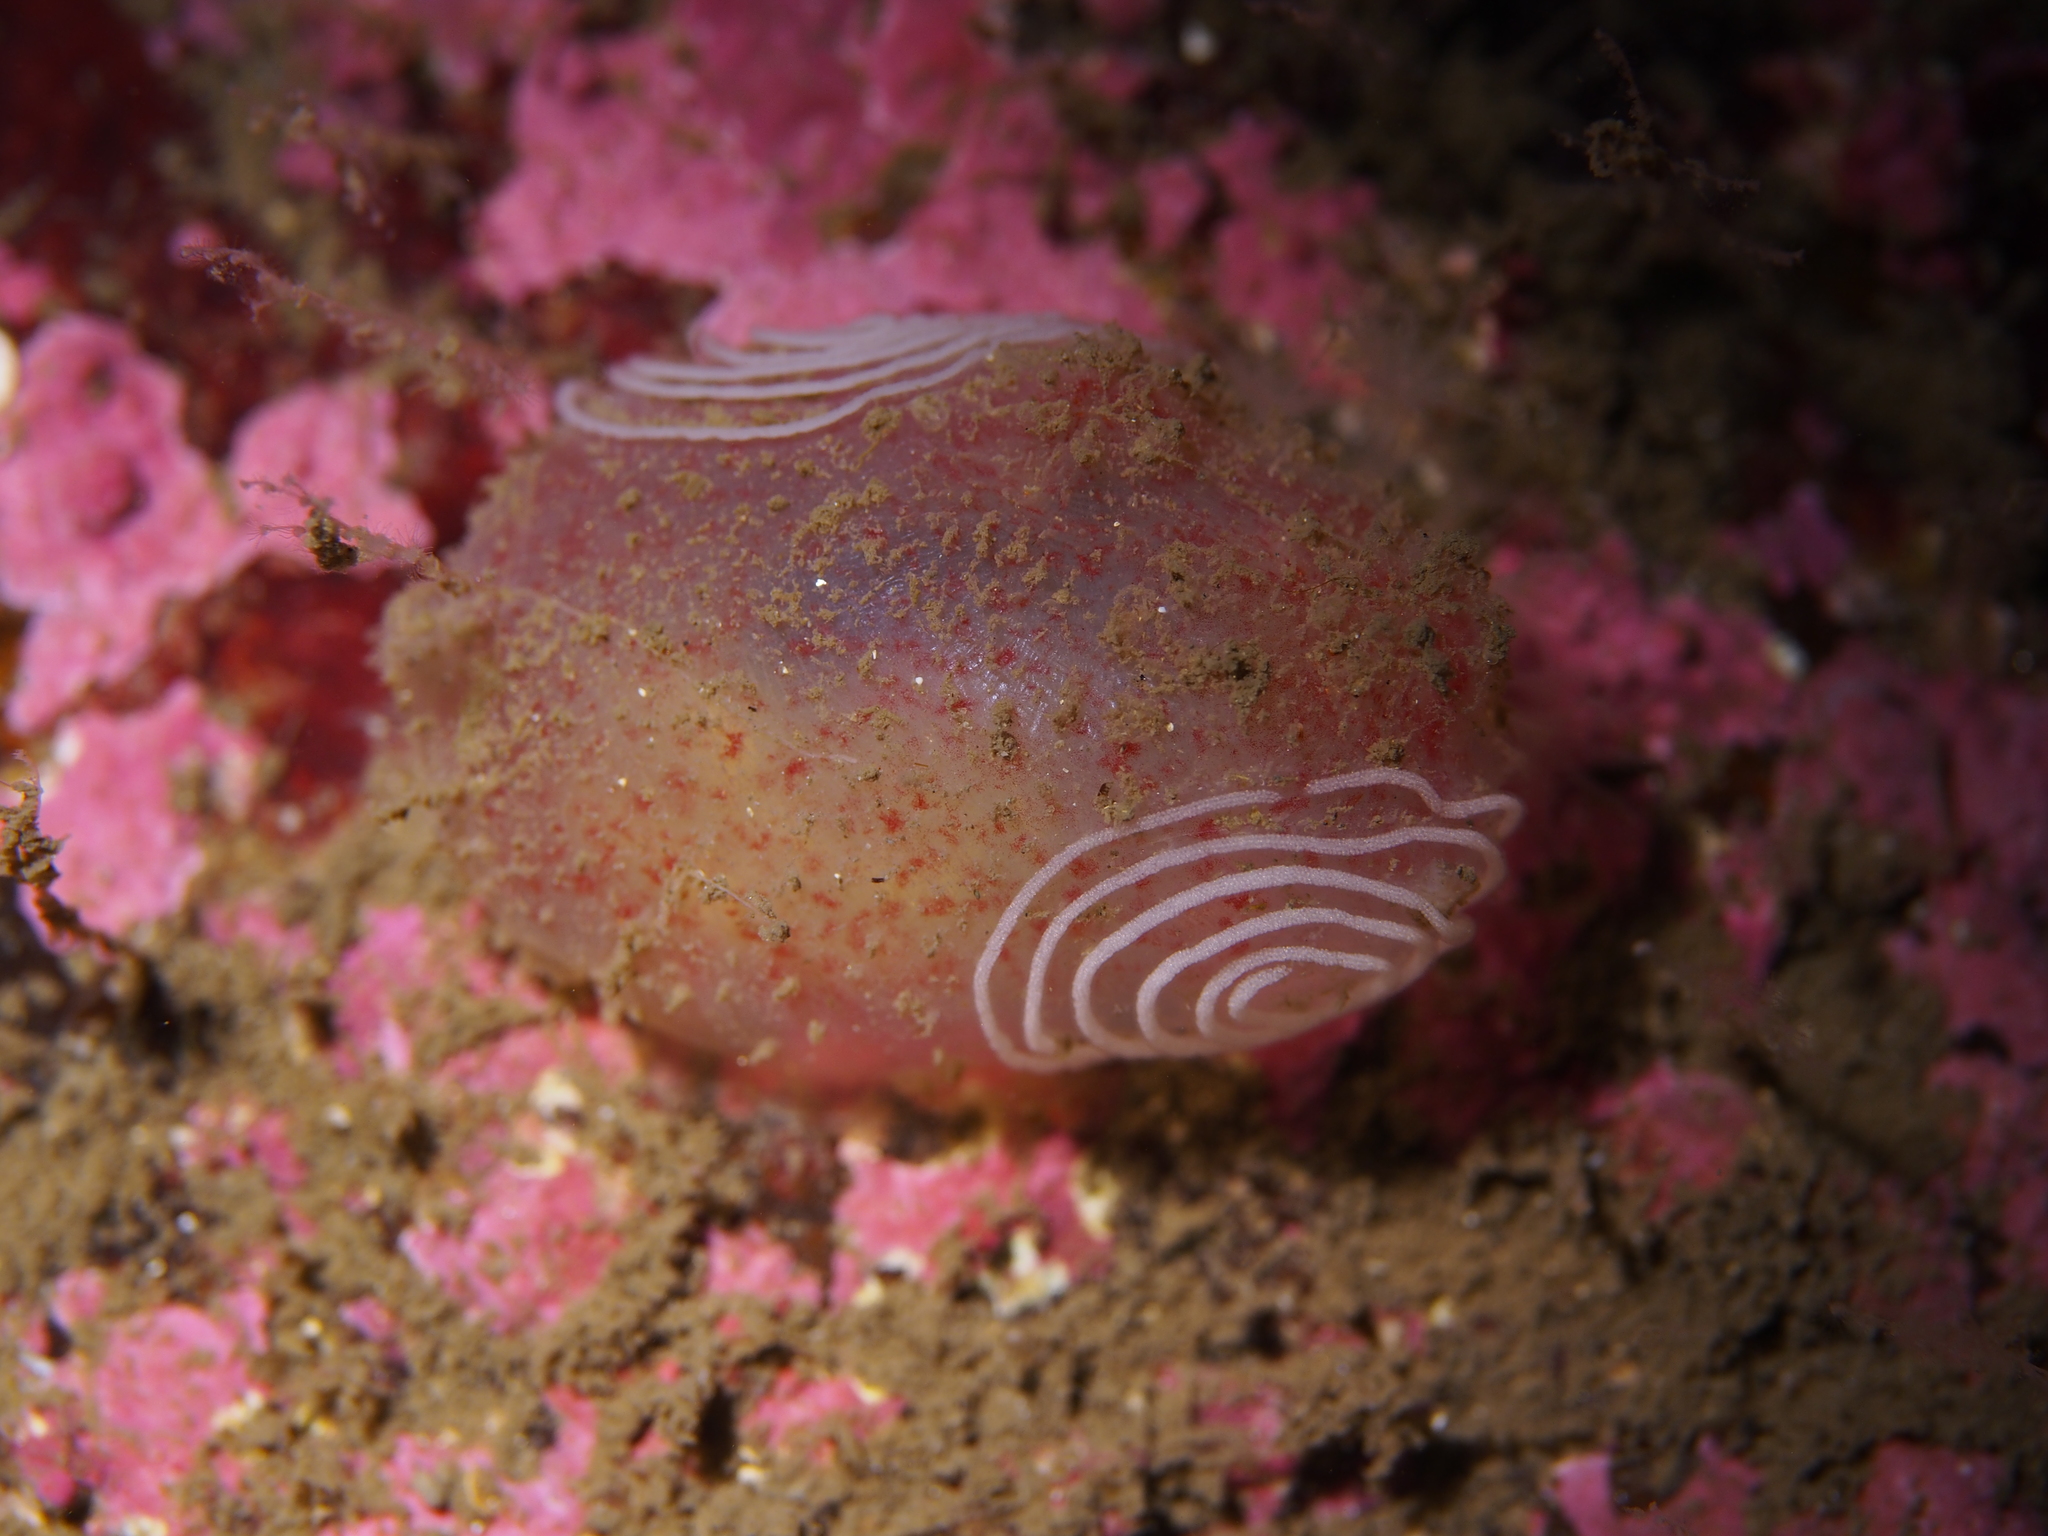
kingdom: Animalia
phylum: Mollusca
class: Gastropoda
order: Nudibranchia
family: Coryphellidae
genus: Coryphella
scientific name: Coryphella verrucosa
